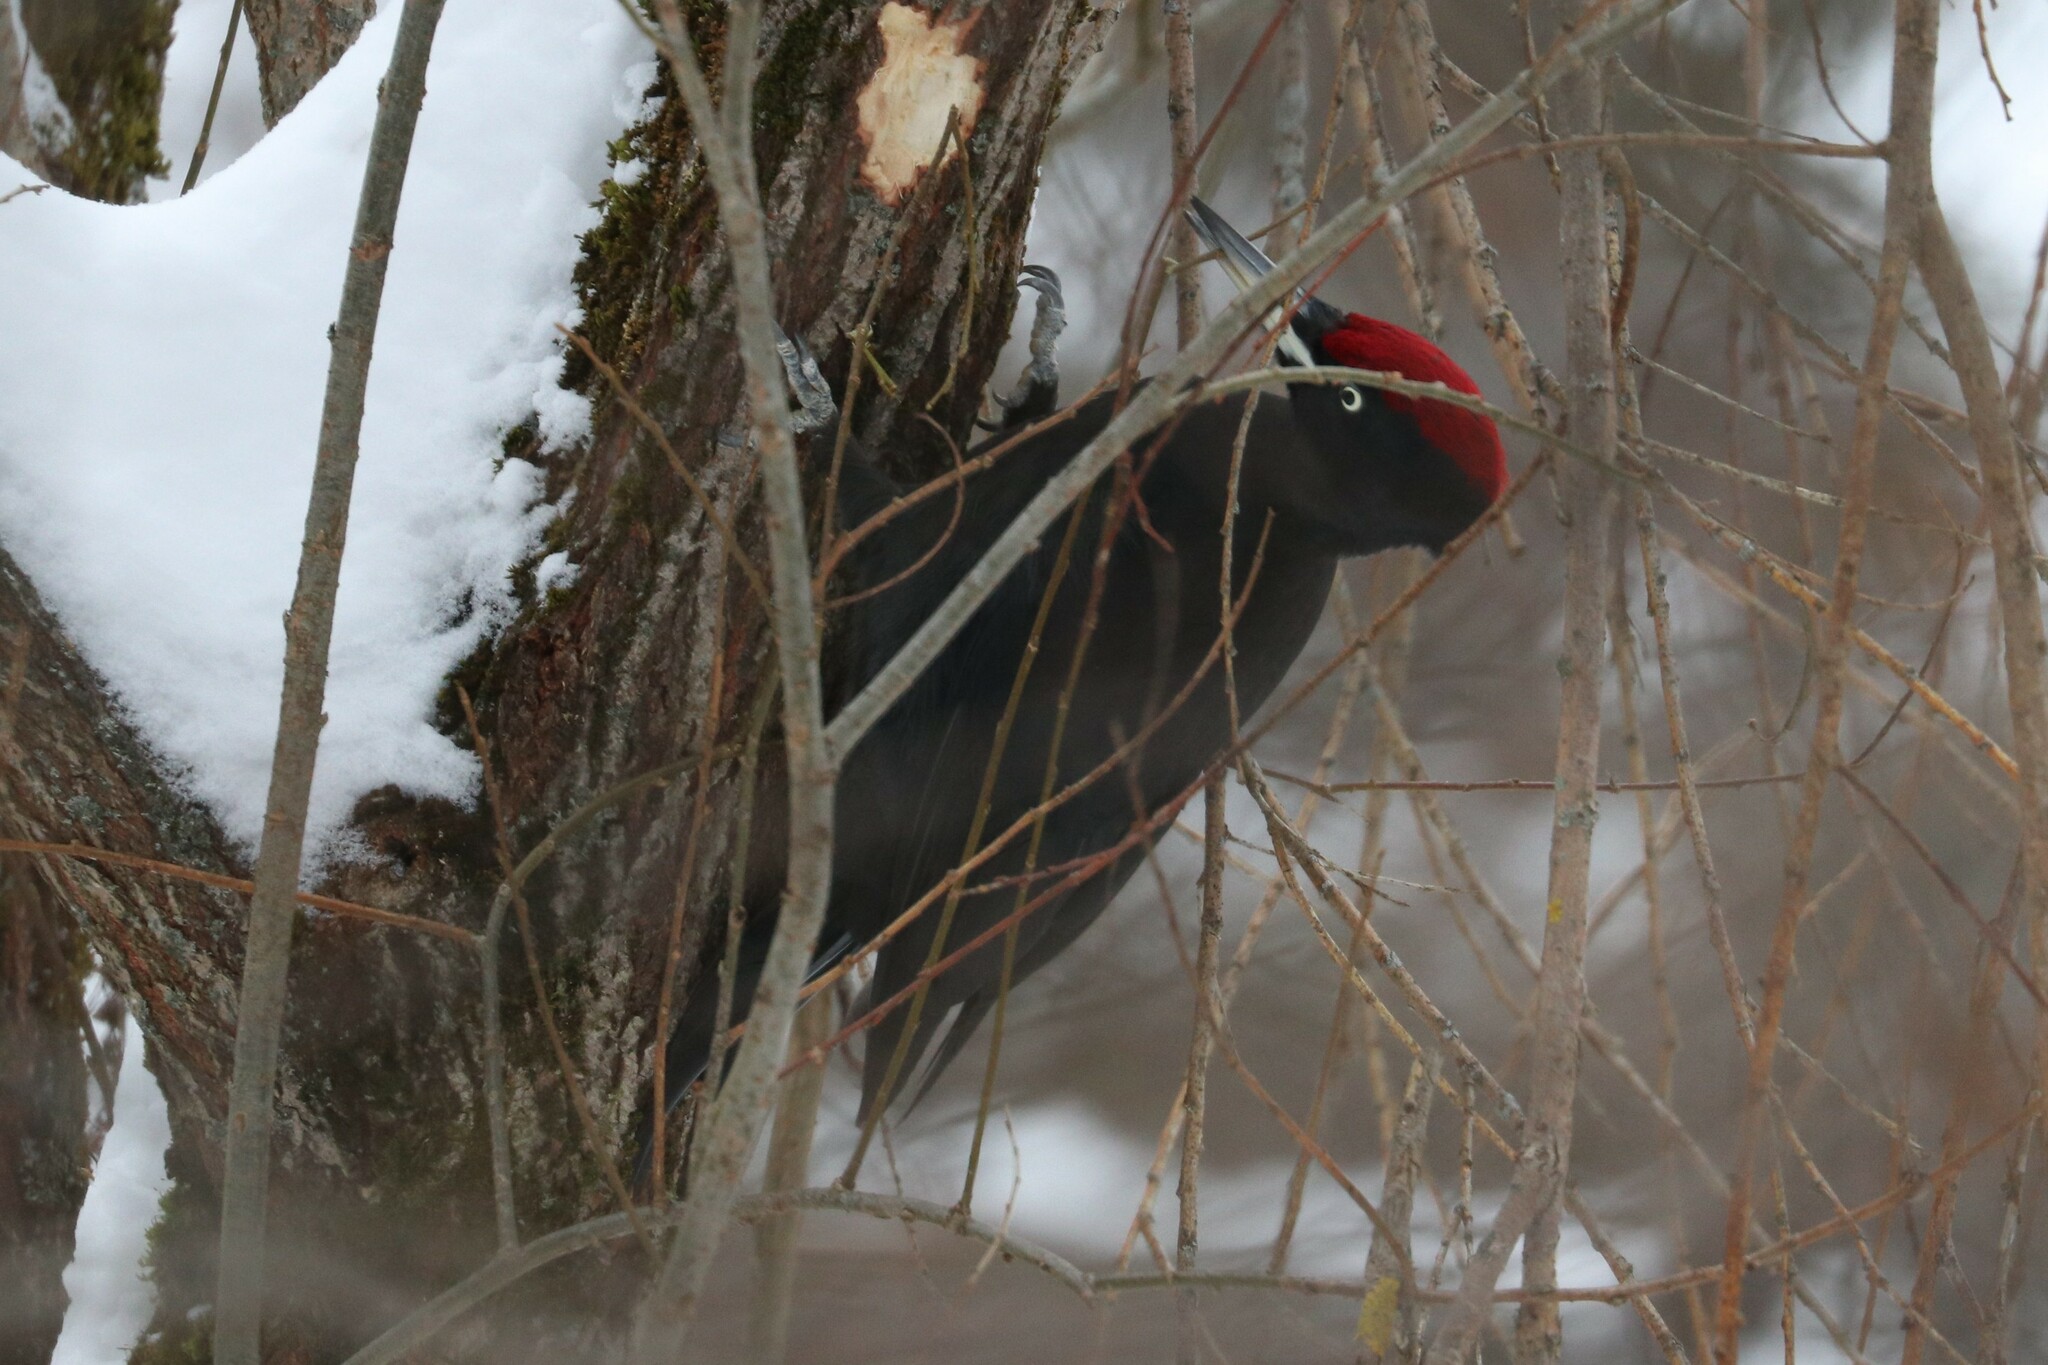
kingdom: Animalia
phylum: Chordata
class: Aves
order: Piciformes
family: Picidae
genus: Dryocopus
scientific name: Dryocopus martius
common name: Black woodpecker
